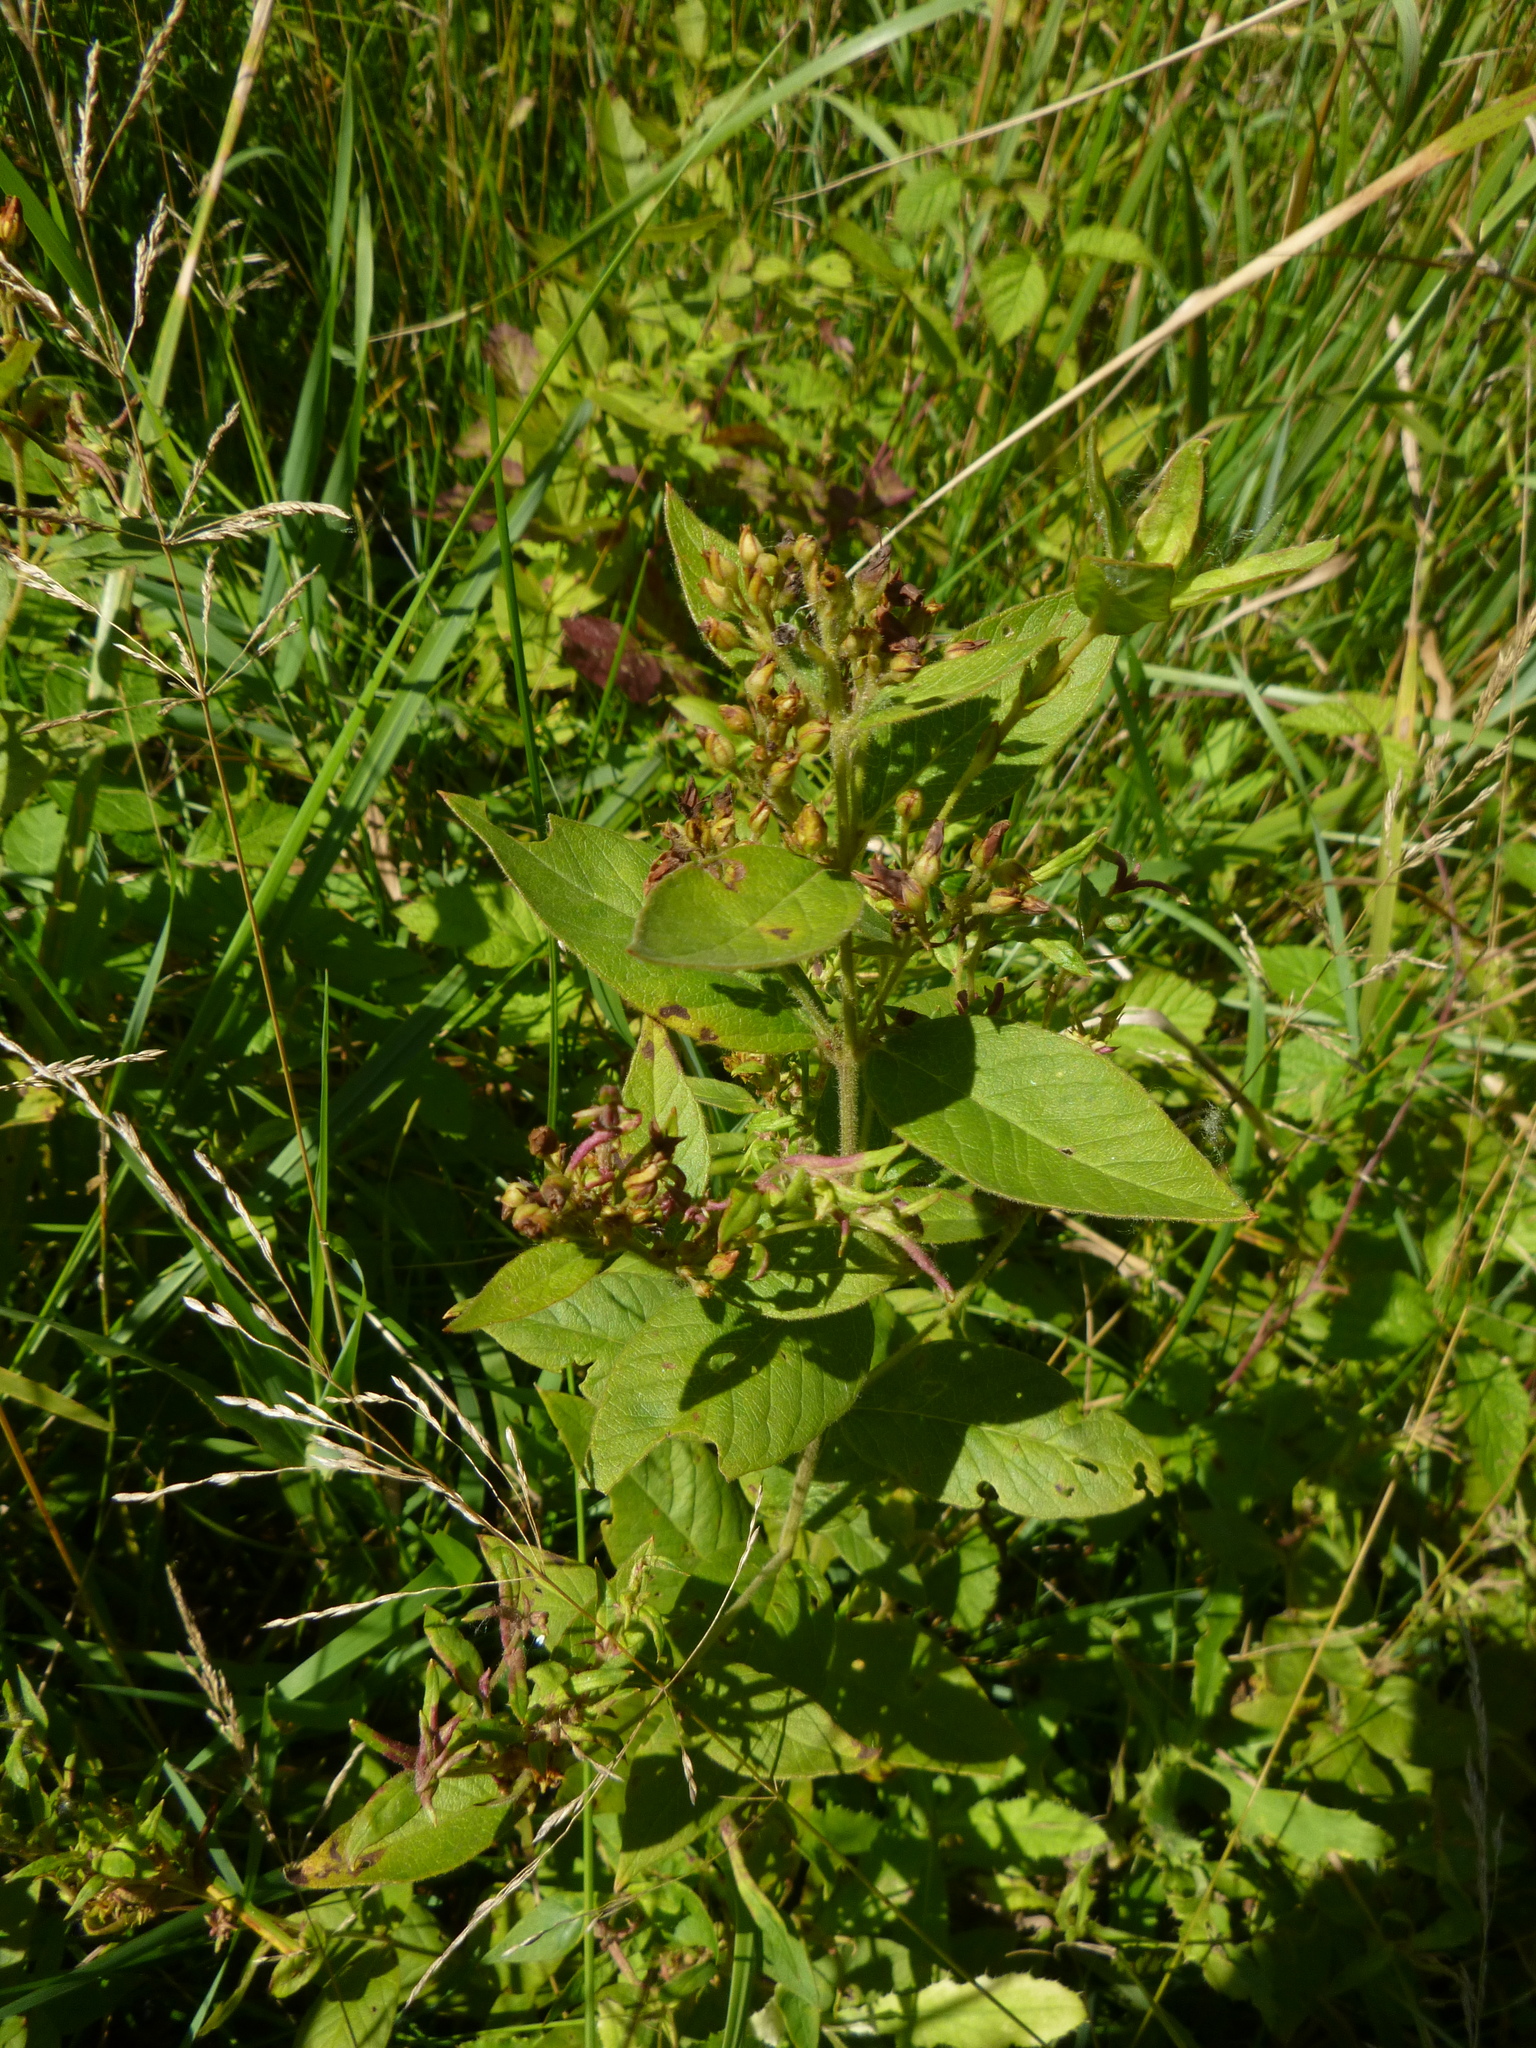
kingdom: Plantae
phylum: Tracheophyta
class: Magnoliopsida
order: Ericales
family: Primulaceae
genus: Lysimachia
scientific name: Lysimachia vulgaris
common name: Yellow loosestrife
